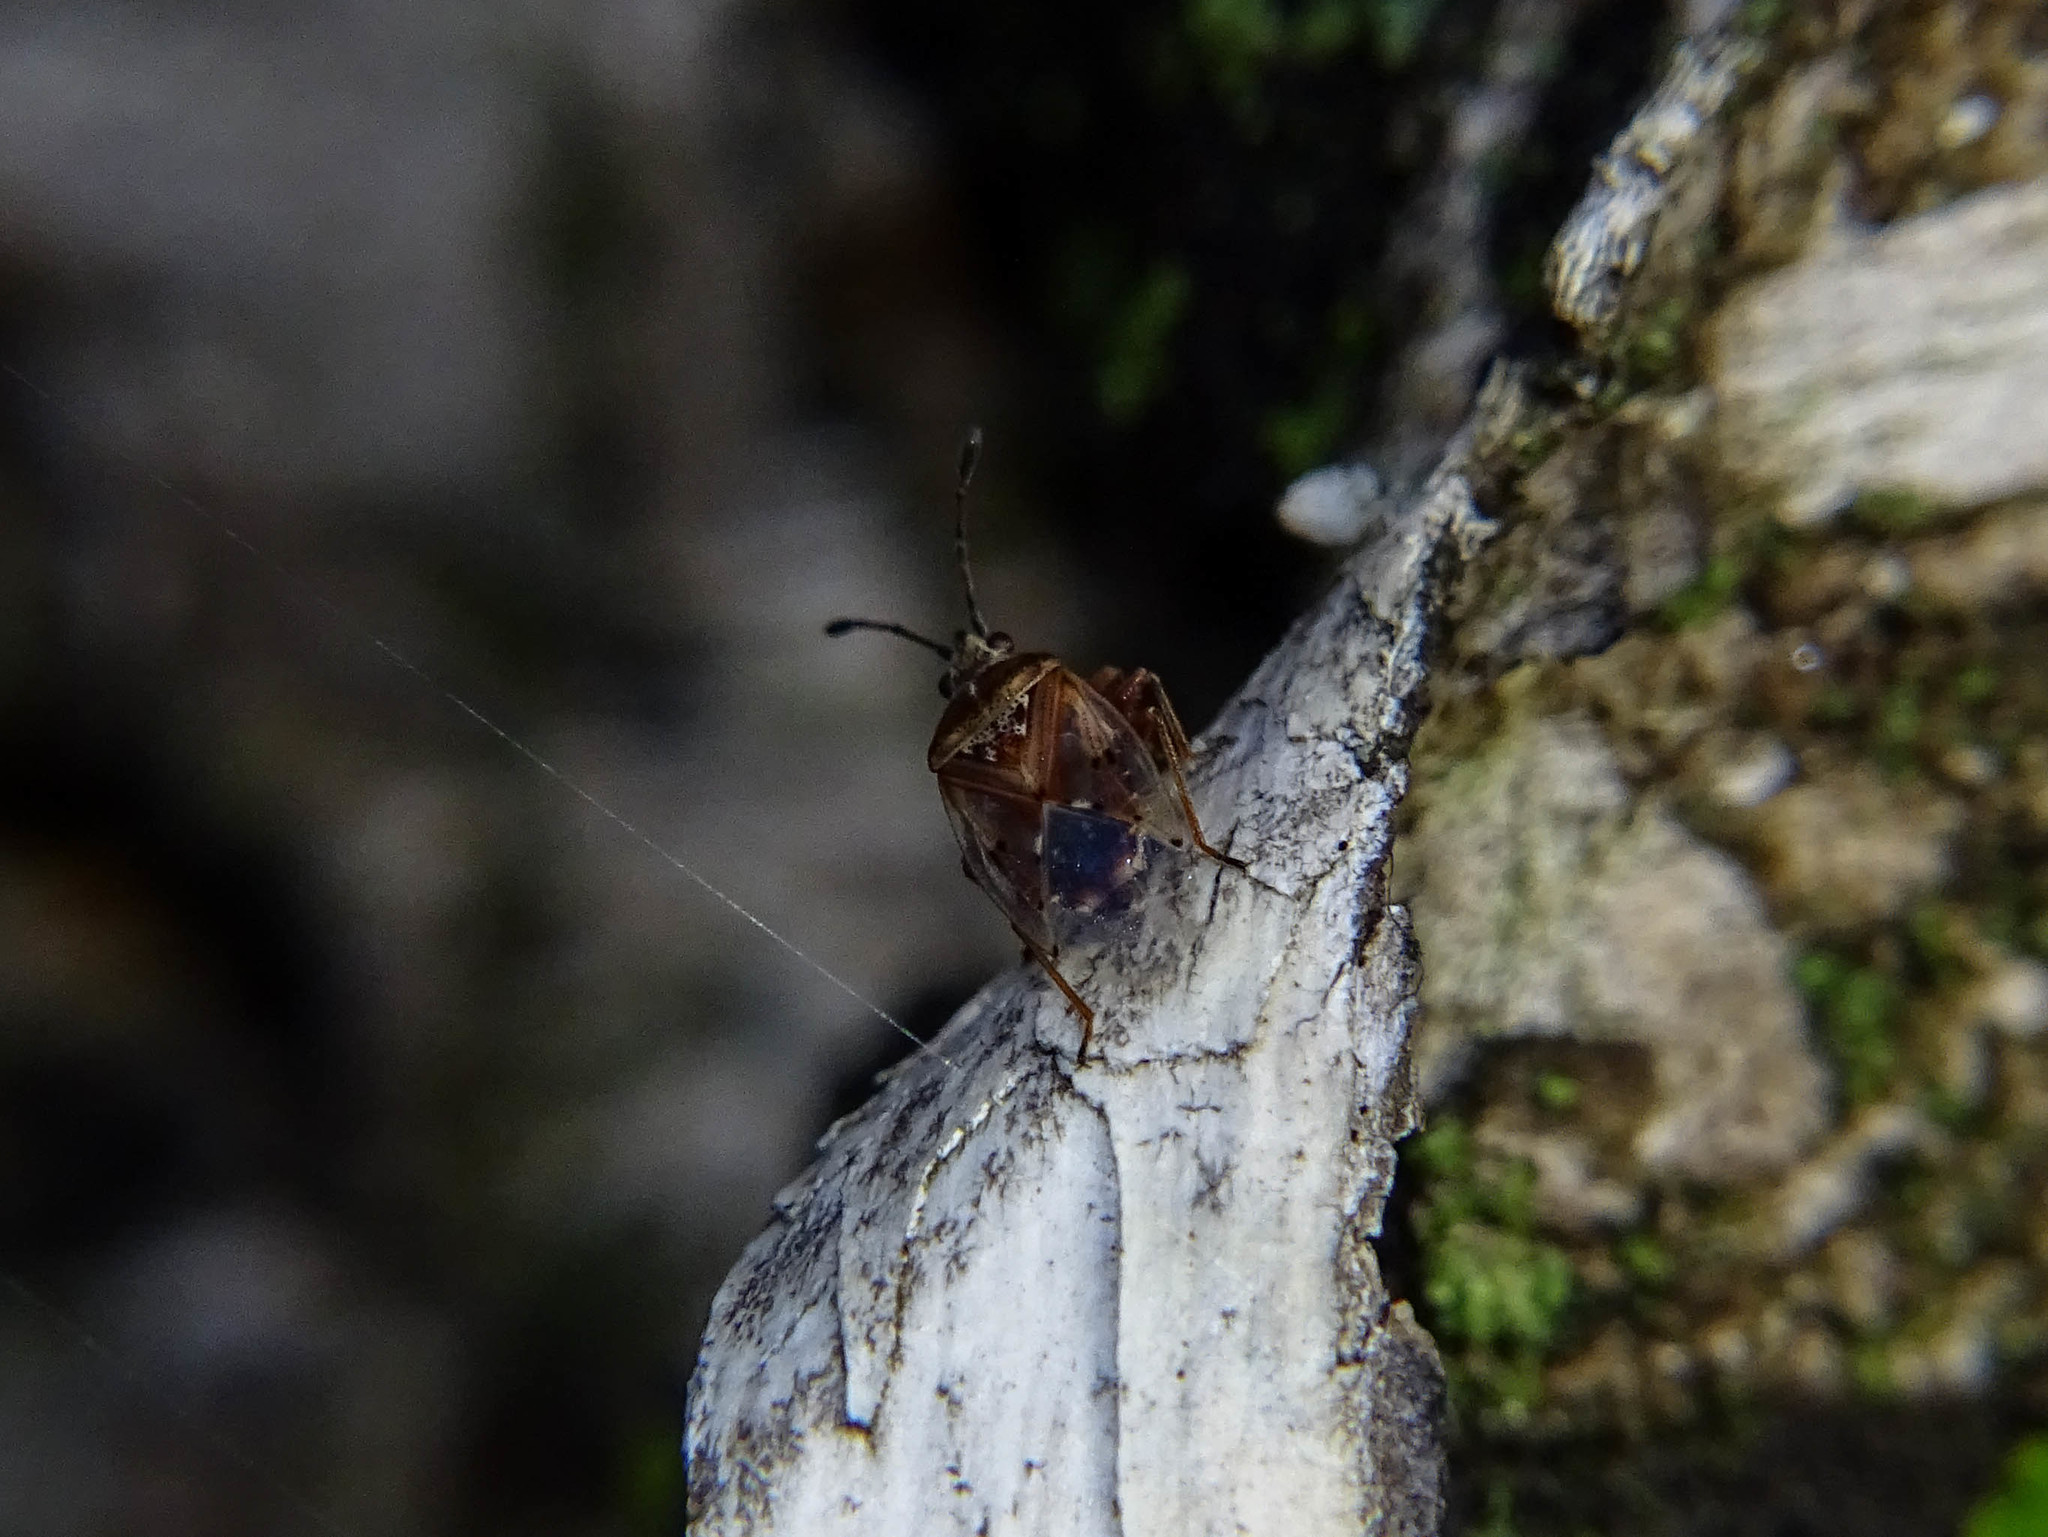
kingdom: Animalia
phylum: Arthropoda
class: Insecta
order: Hemiptera
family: Lygaeidae
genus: Kleidocerys
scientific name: Kleidocerys resedae
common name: Birch catkin bug
